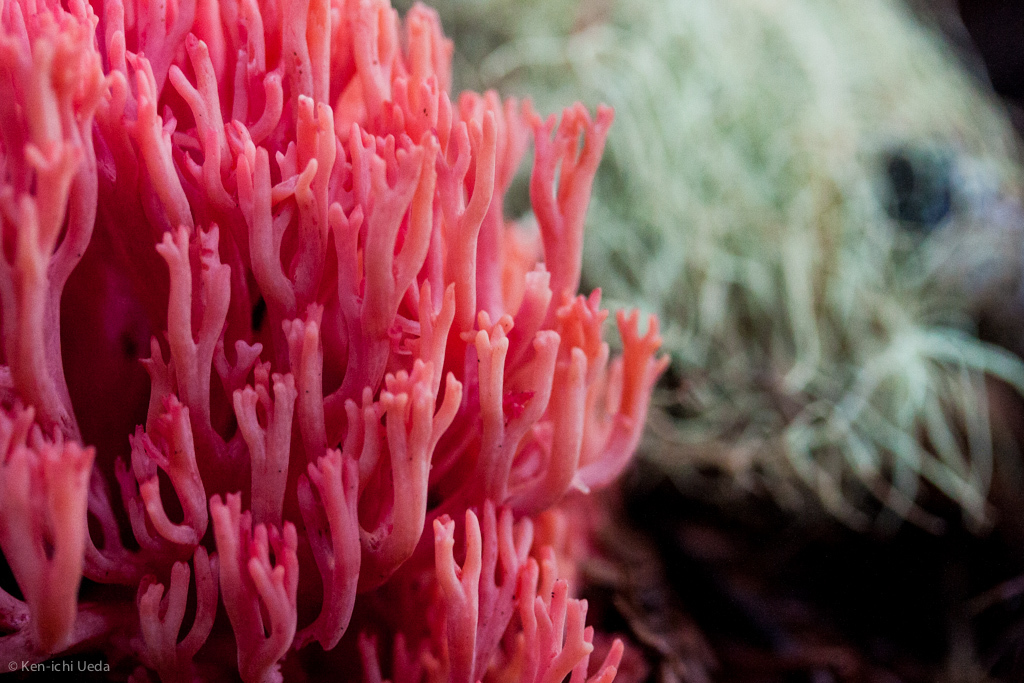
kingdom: Fungi
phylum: Basidiomycota
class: Agaricomycetes
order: Gomphales
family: Gomphaceae
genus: Ramaria
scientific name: Ramaria araiospora
